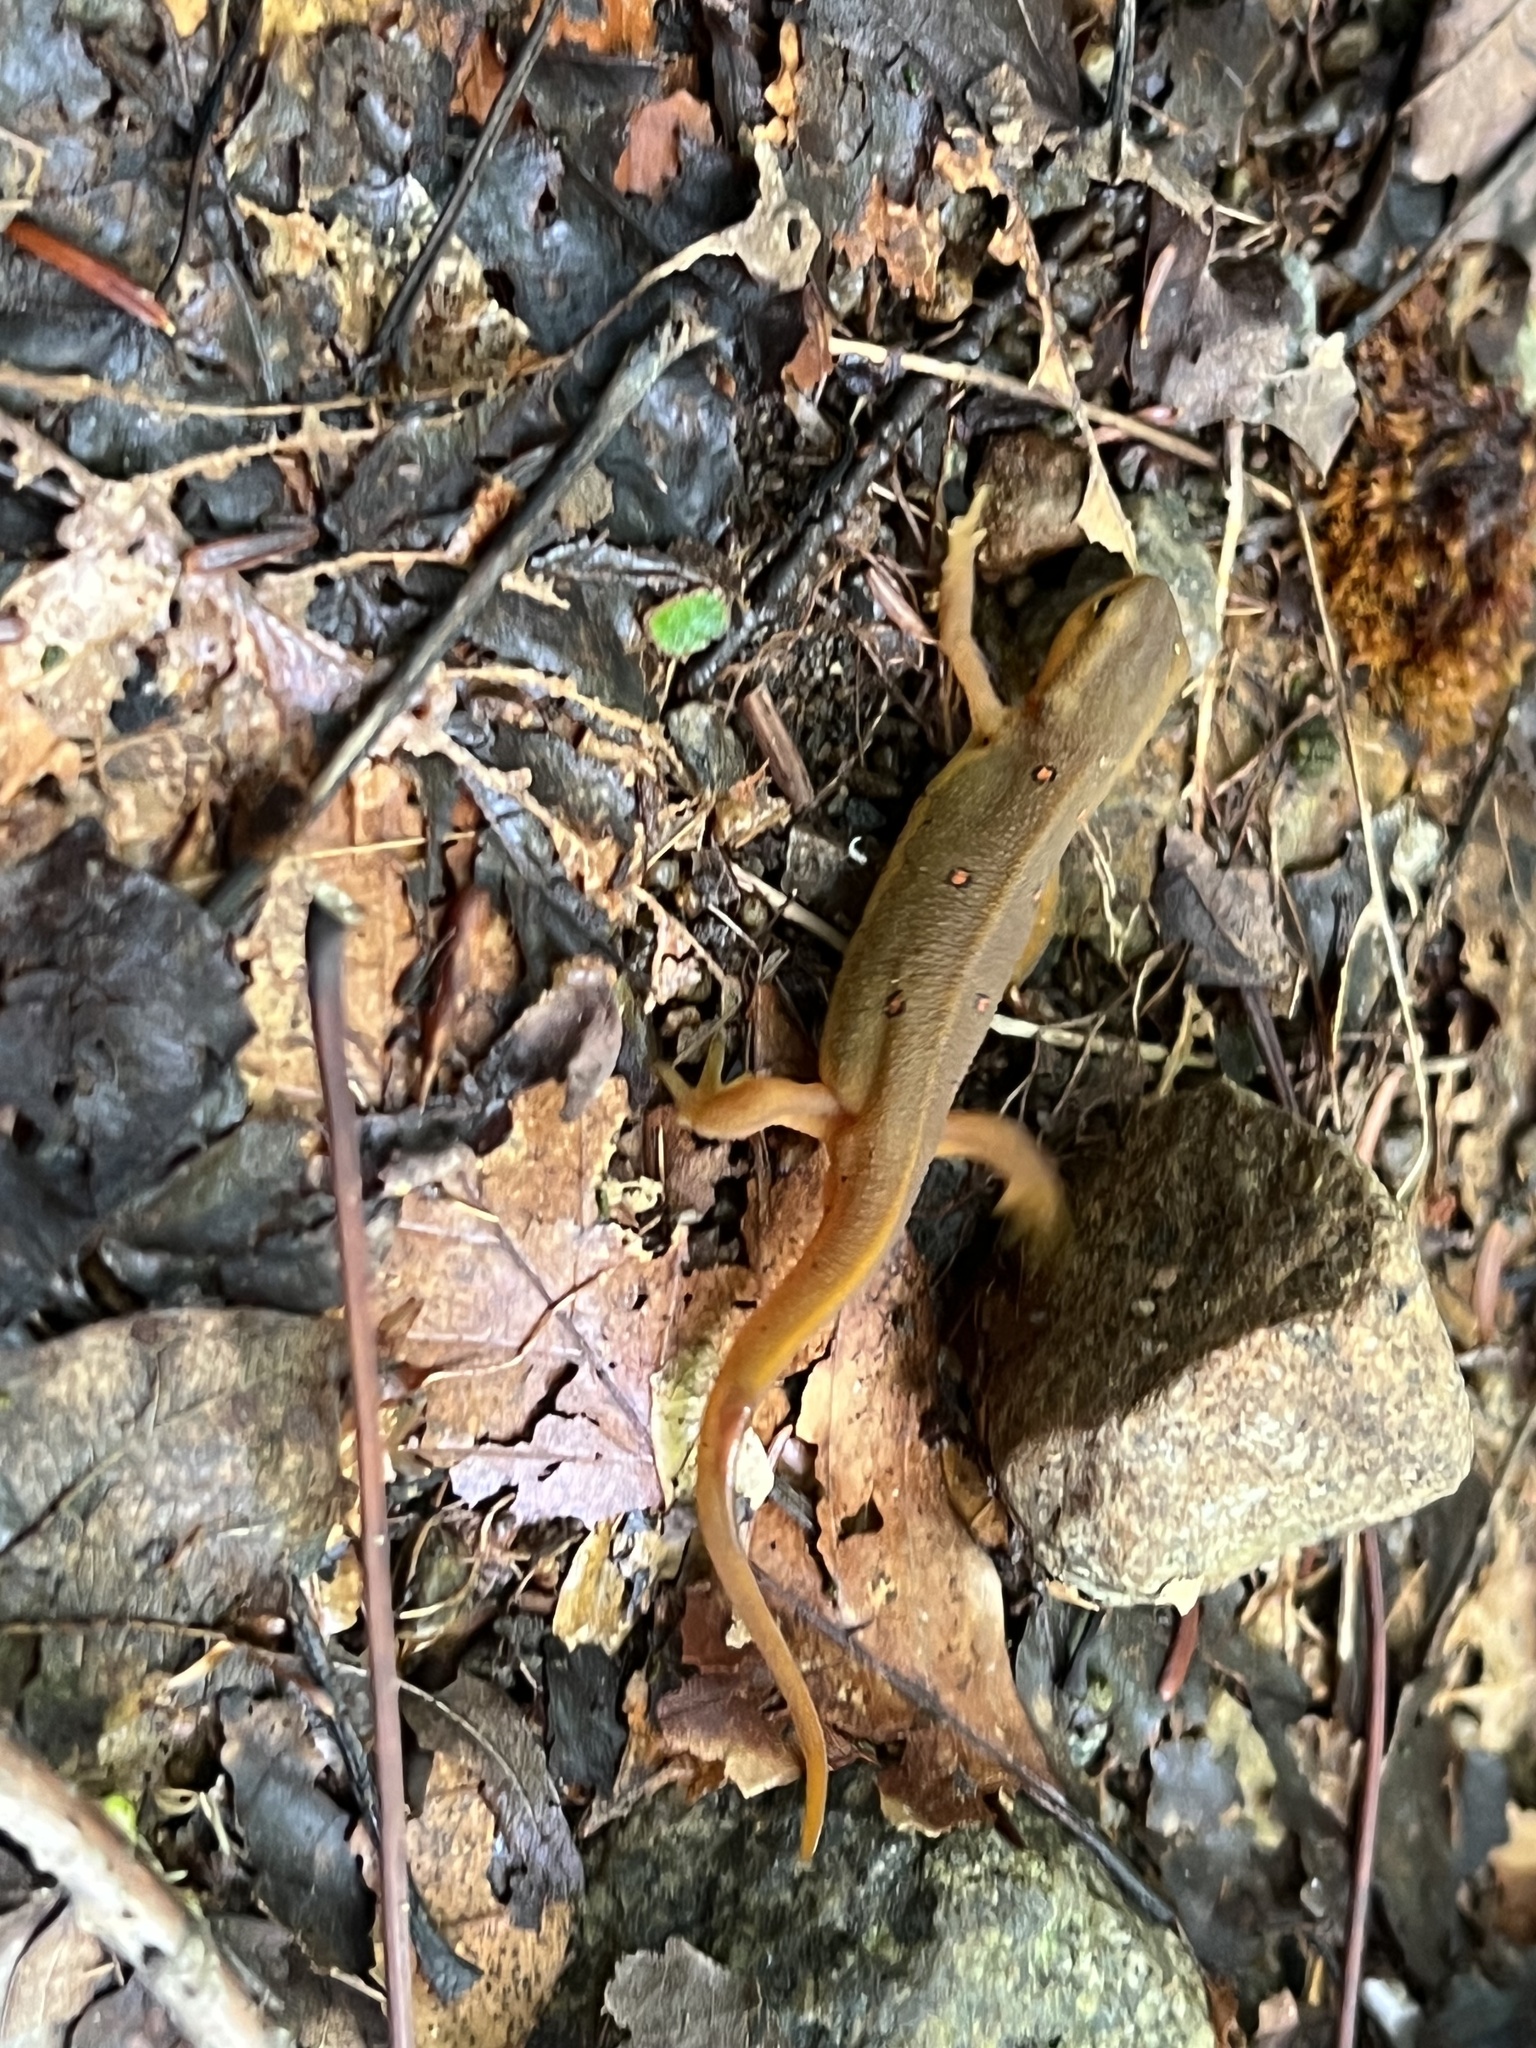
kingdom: Animalia
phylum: Chordata
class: Amphibia
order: Caudata
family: Salamandridae
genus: Notophthalmus
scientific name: Notophthalmus viridescens
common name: Eastern newt
